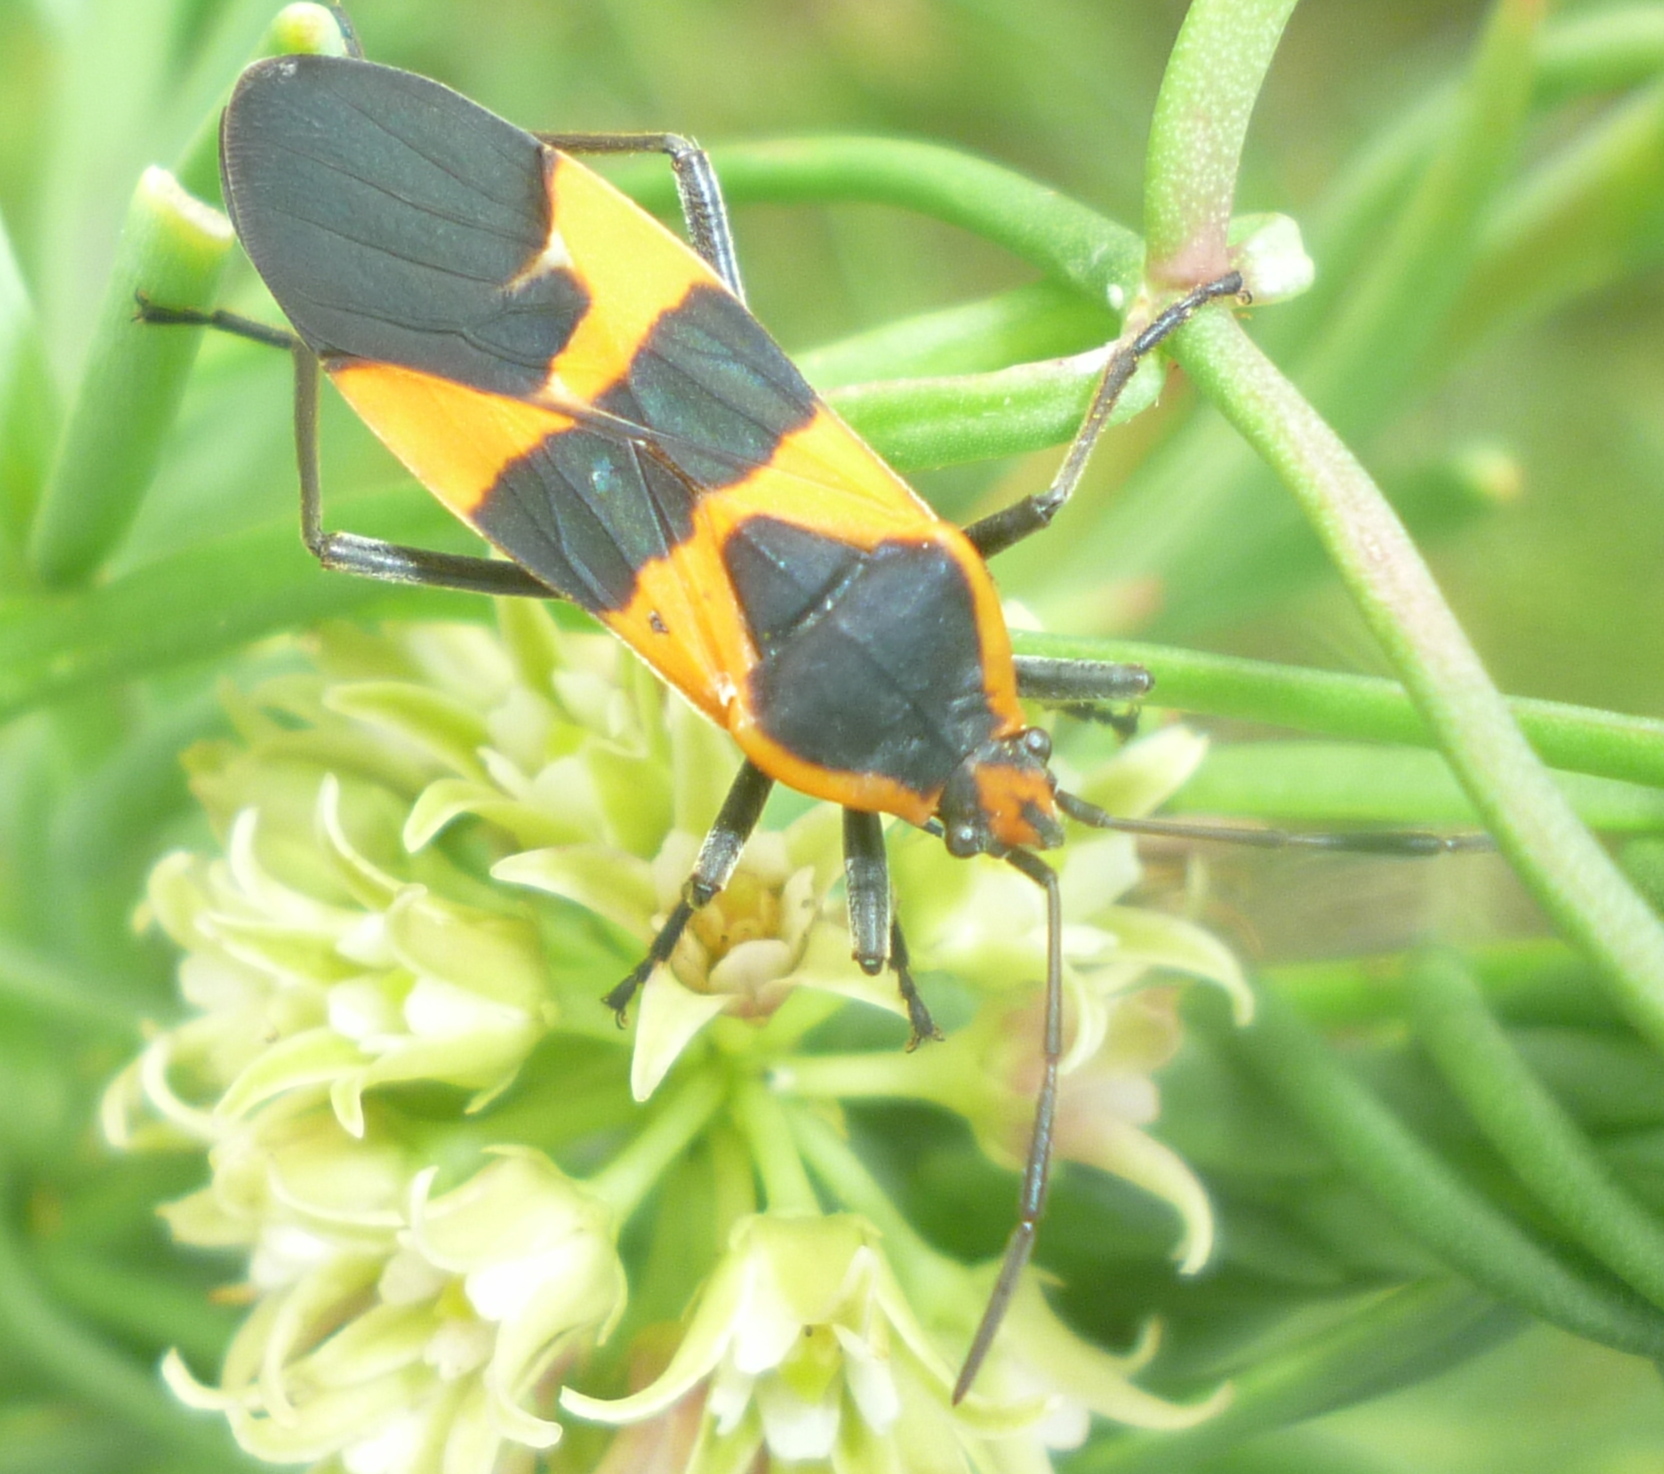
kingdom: Animalia
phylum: Arthropoda
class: Insecta
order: Hemiptera
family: Lygaeidae
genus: Oncopeltus
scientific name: Oncopeltus fasciatus
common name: Large milkweed bug
